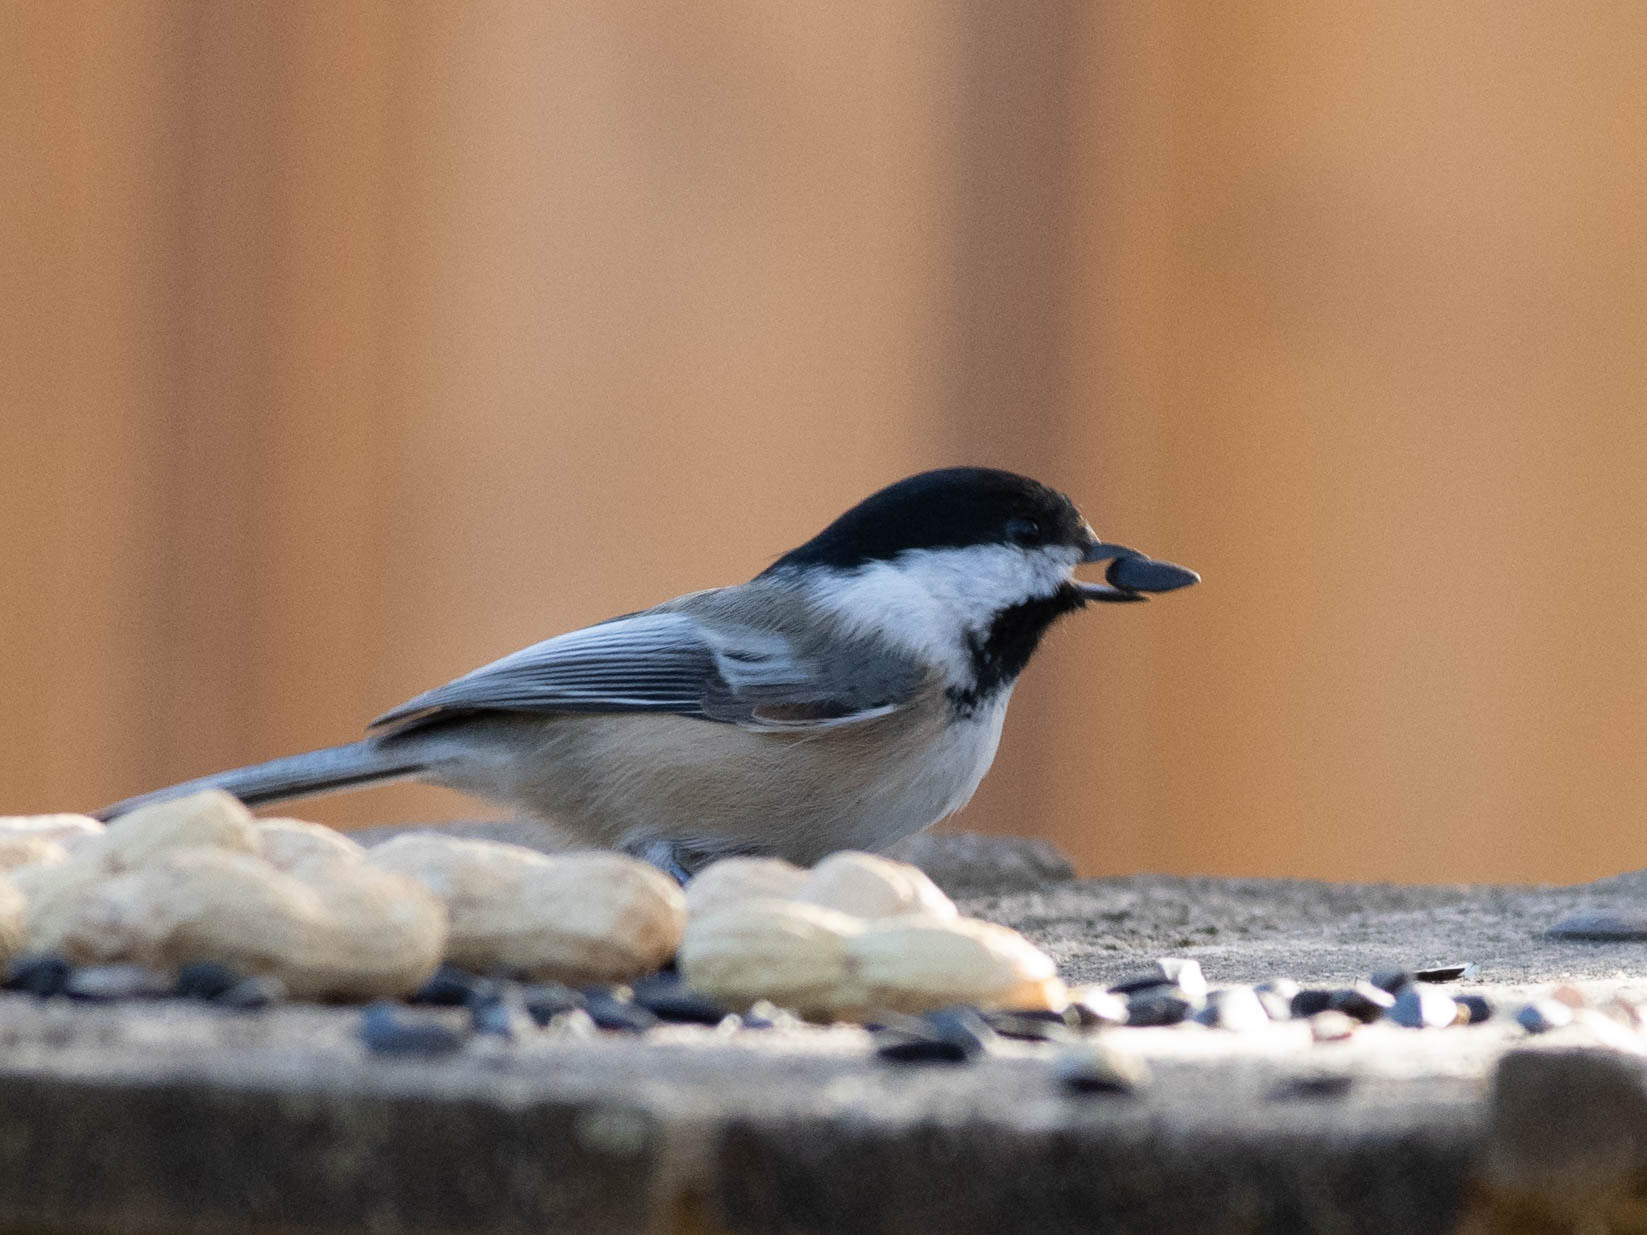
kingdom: Animalia
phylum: Chordata
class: Aves
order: Passeriformes
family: Paridae
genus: Poecile
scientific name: Poecile atricapillus
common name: Black-capped chickadee
